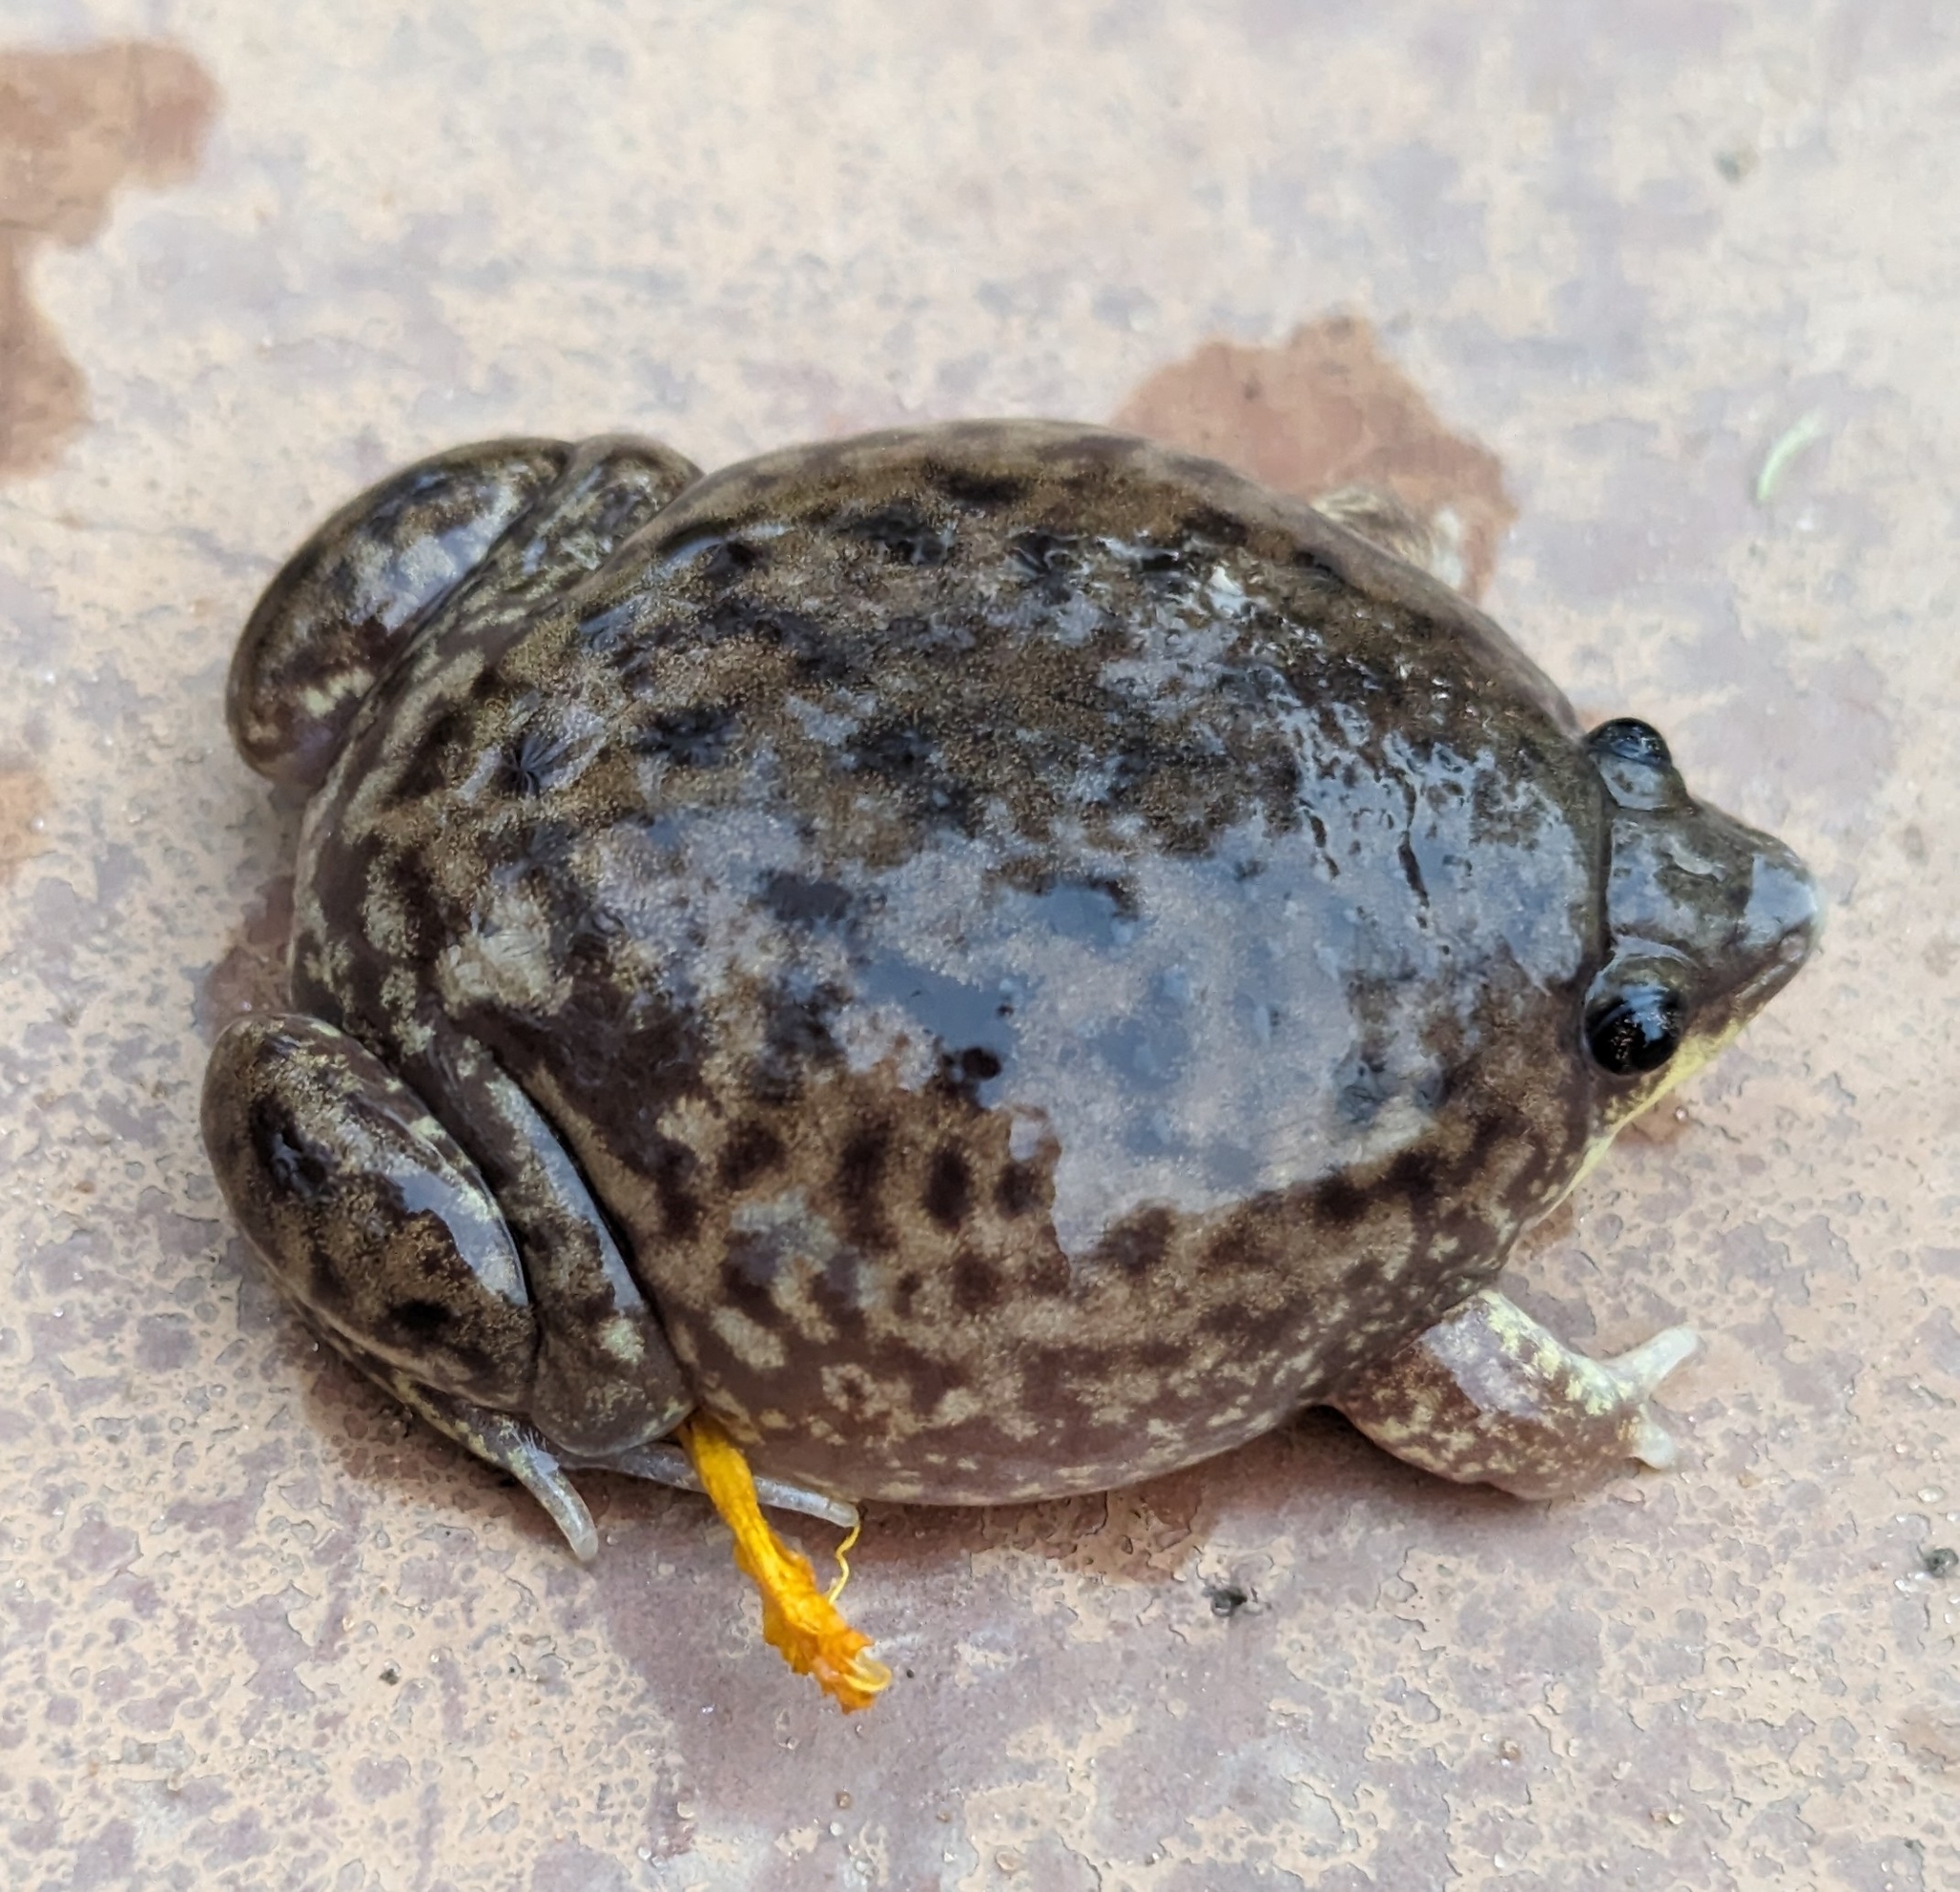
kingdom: Animalia
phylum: Chordata
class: Amphibia
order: Anura
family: Hemisotidae
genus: Hemisus
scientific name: Hemisus marmoratus
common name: Mottled shovel-nosed frog
